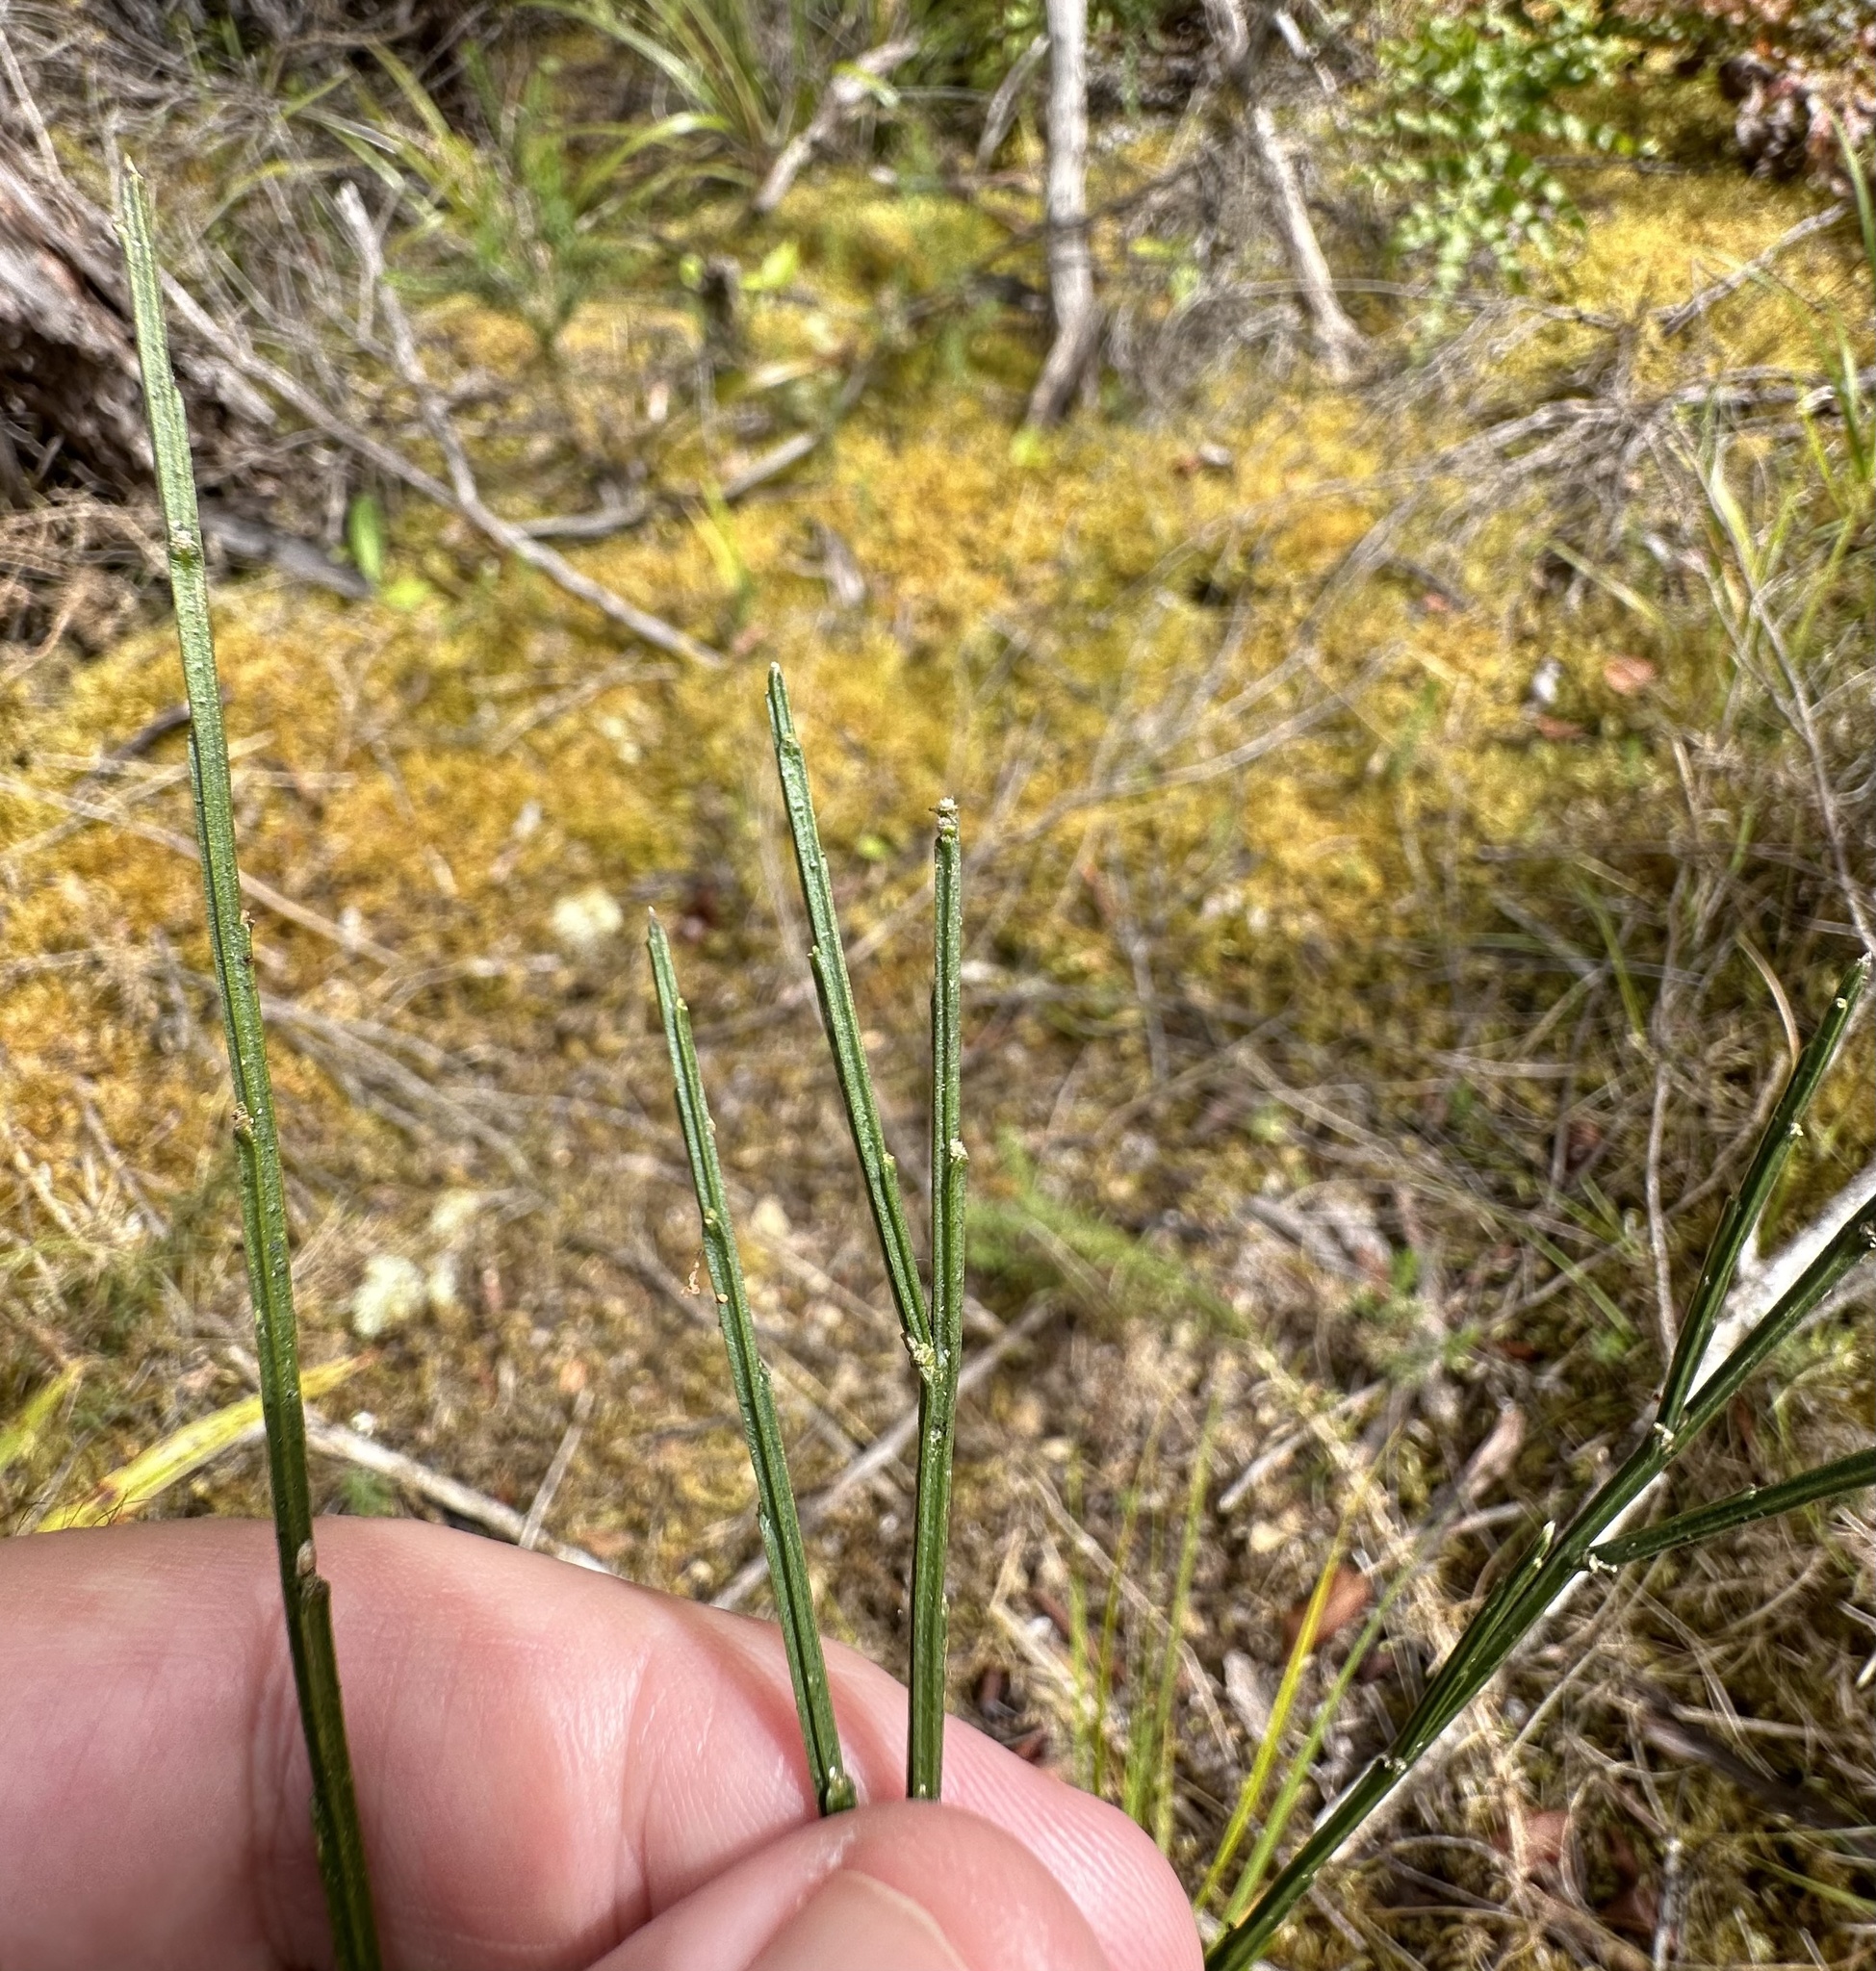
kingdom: Plantae
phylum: Tracheophyta
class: Magnoliopsida
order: Fabales
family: Fabaceae
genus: Cytisus
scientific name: Cytisus scoparius
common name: Scotch broom
